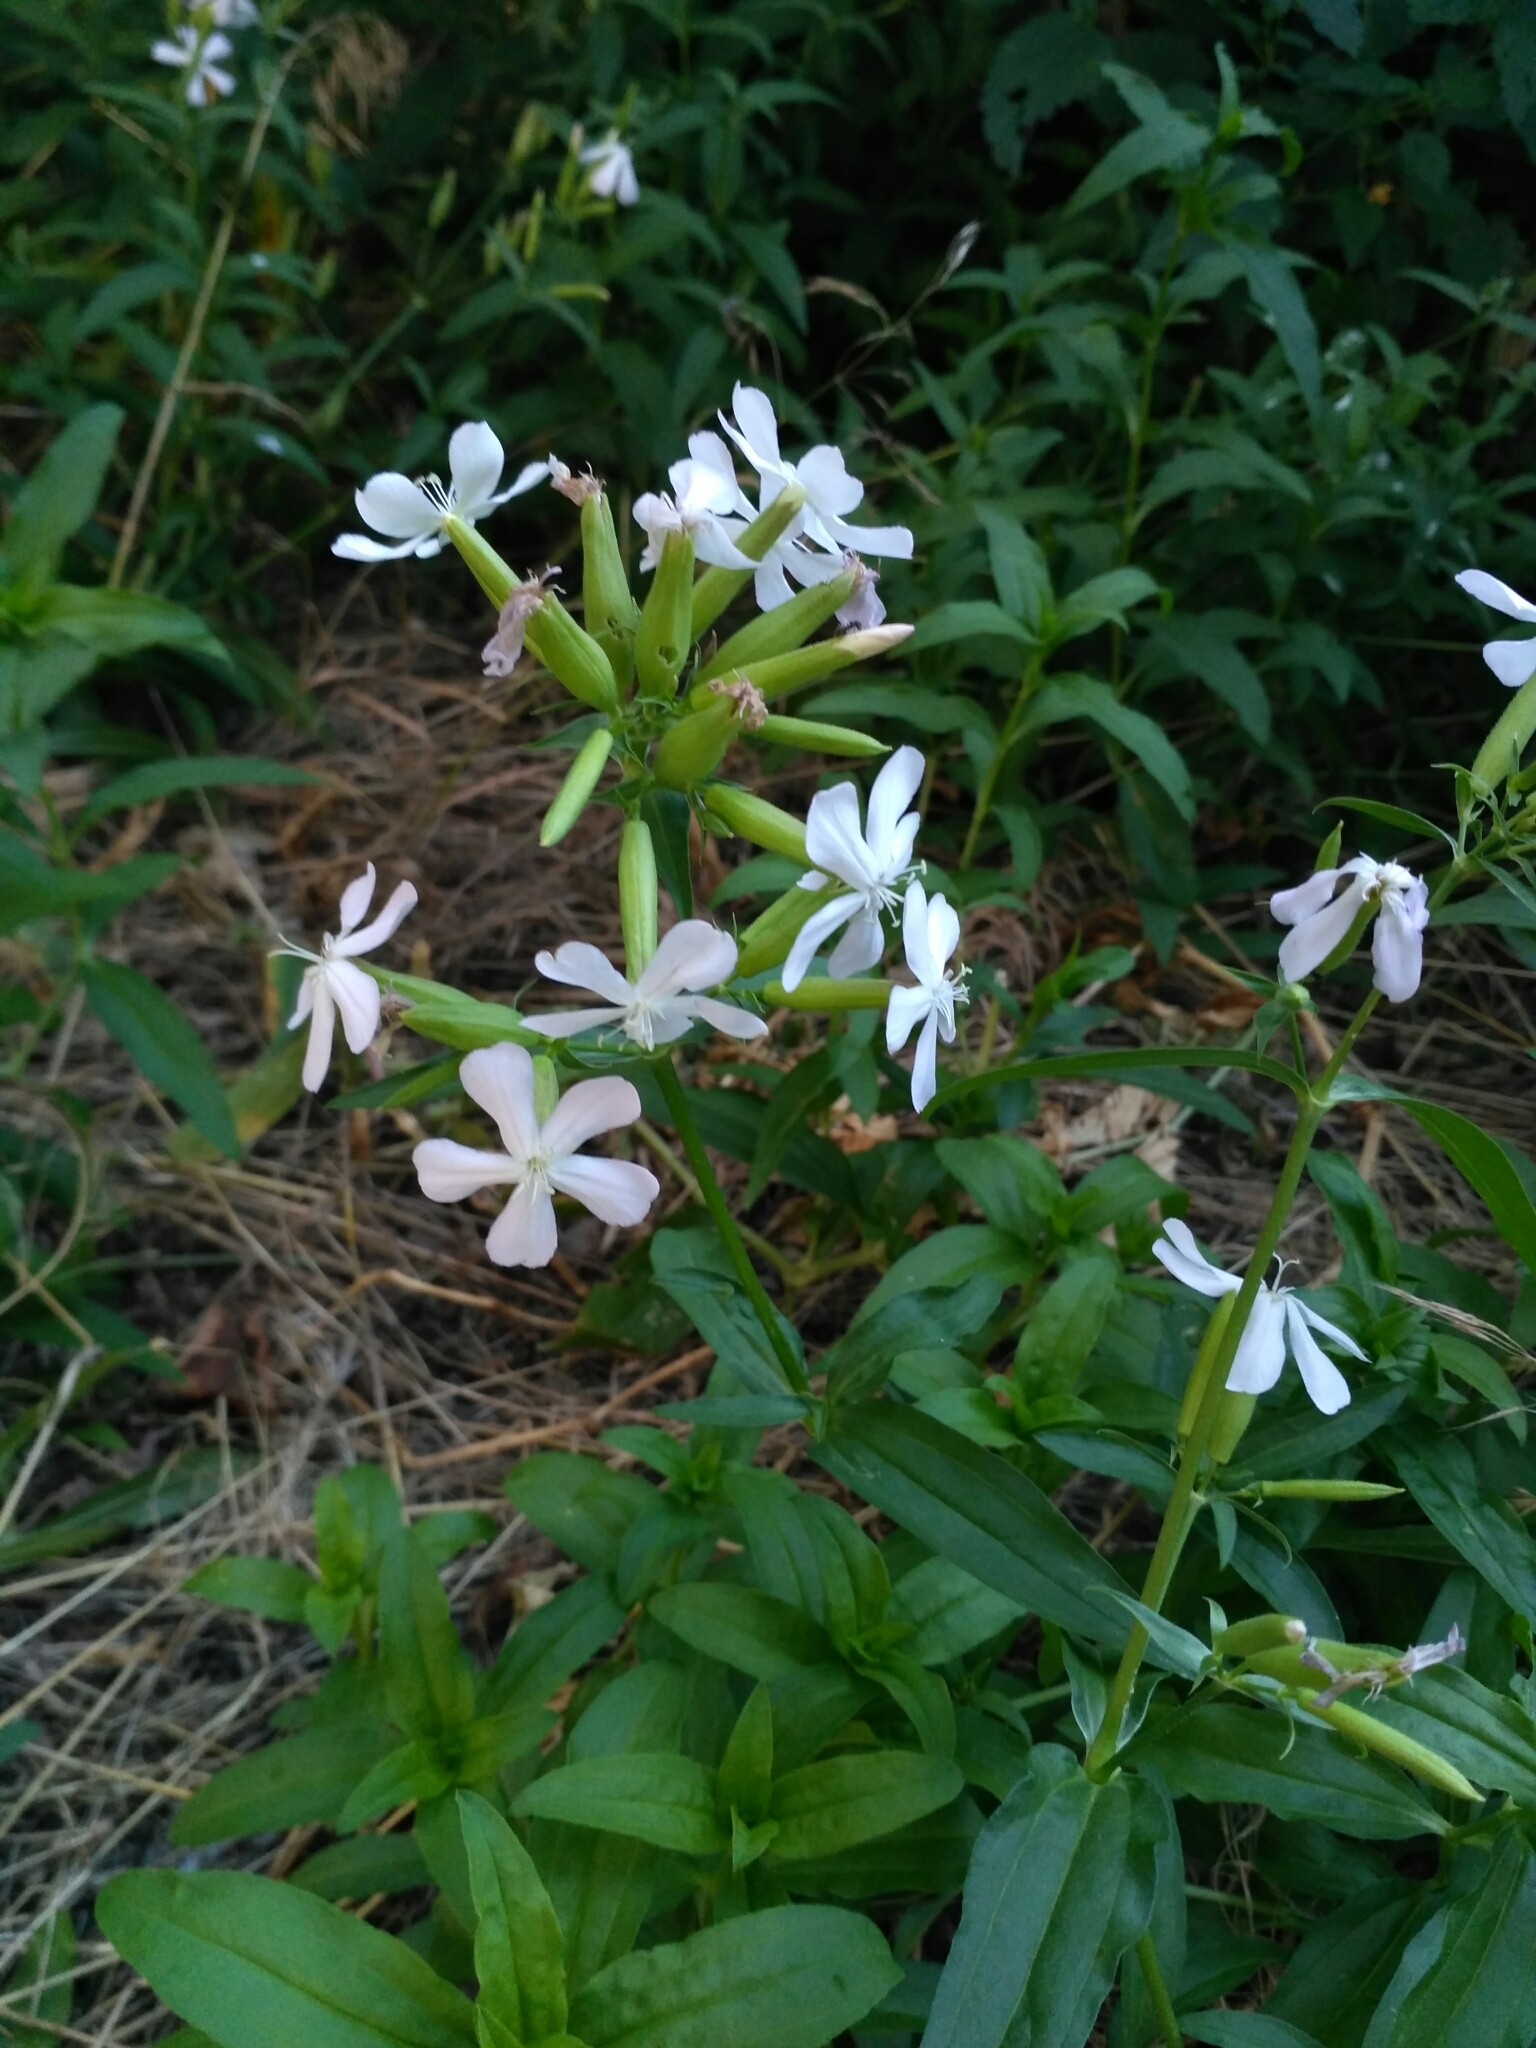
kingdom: Plantae
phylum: Tracheophyta
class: Magnoliopsida
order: Caryophyllales
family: Caryophyllaceae
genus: Saponaria
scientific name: Saponaria officinalis
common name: Soapwort
